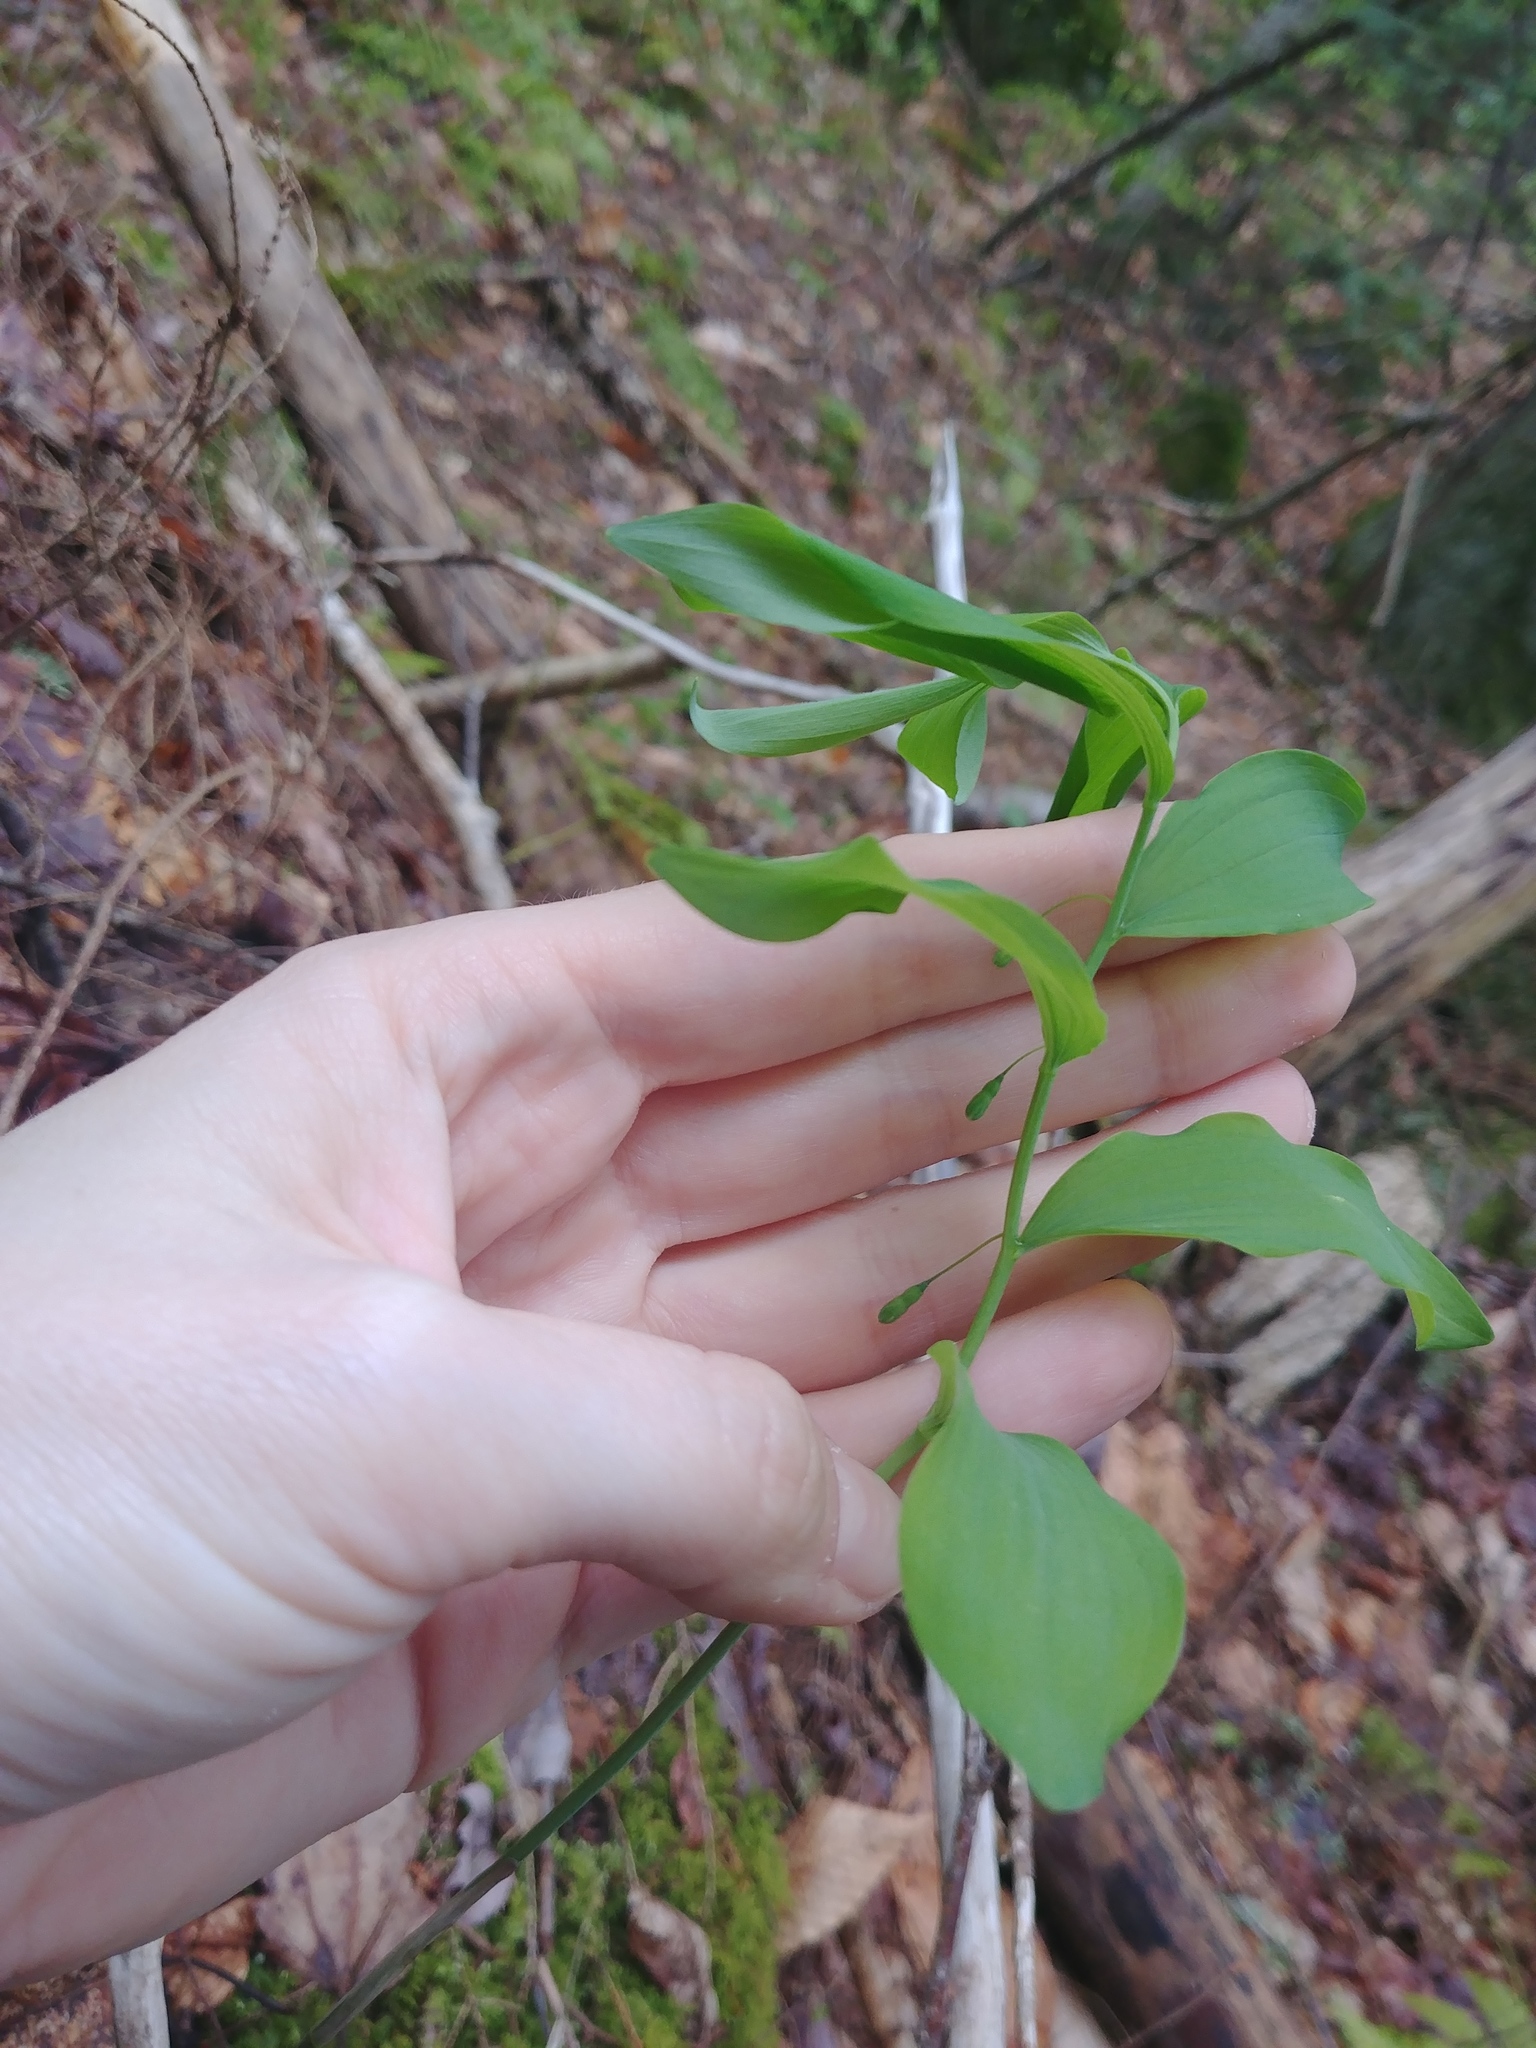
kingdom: Plantae
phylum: Tracheophyta
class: Liliopsida
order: Asparagales
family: Asparagaceae
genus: Polygonatum
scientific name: Polygonatum pubescens
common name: Downy solomon's seal
